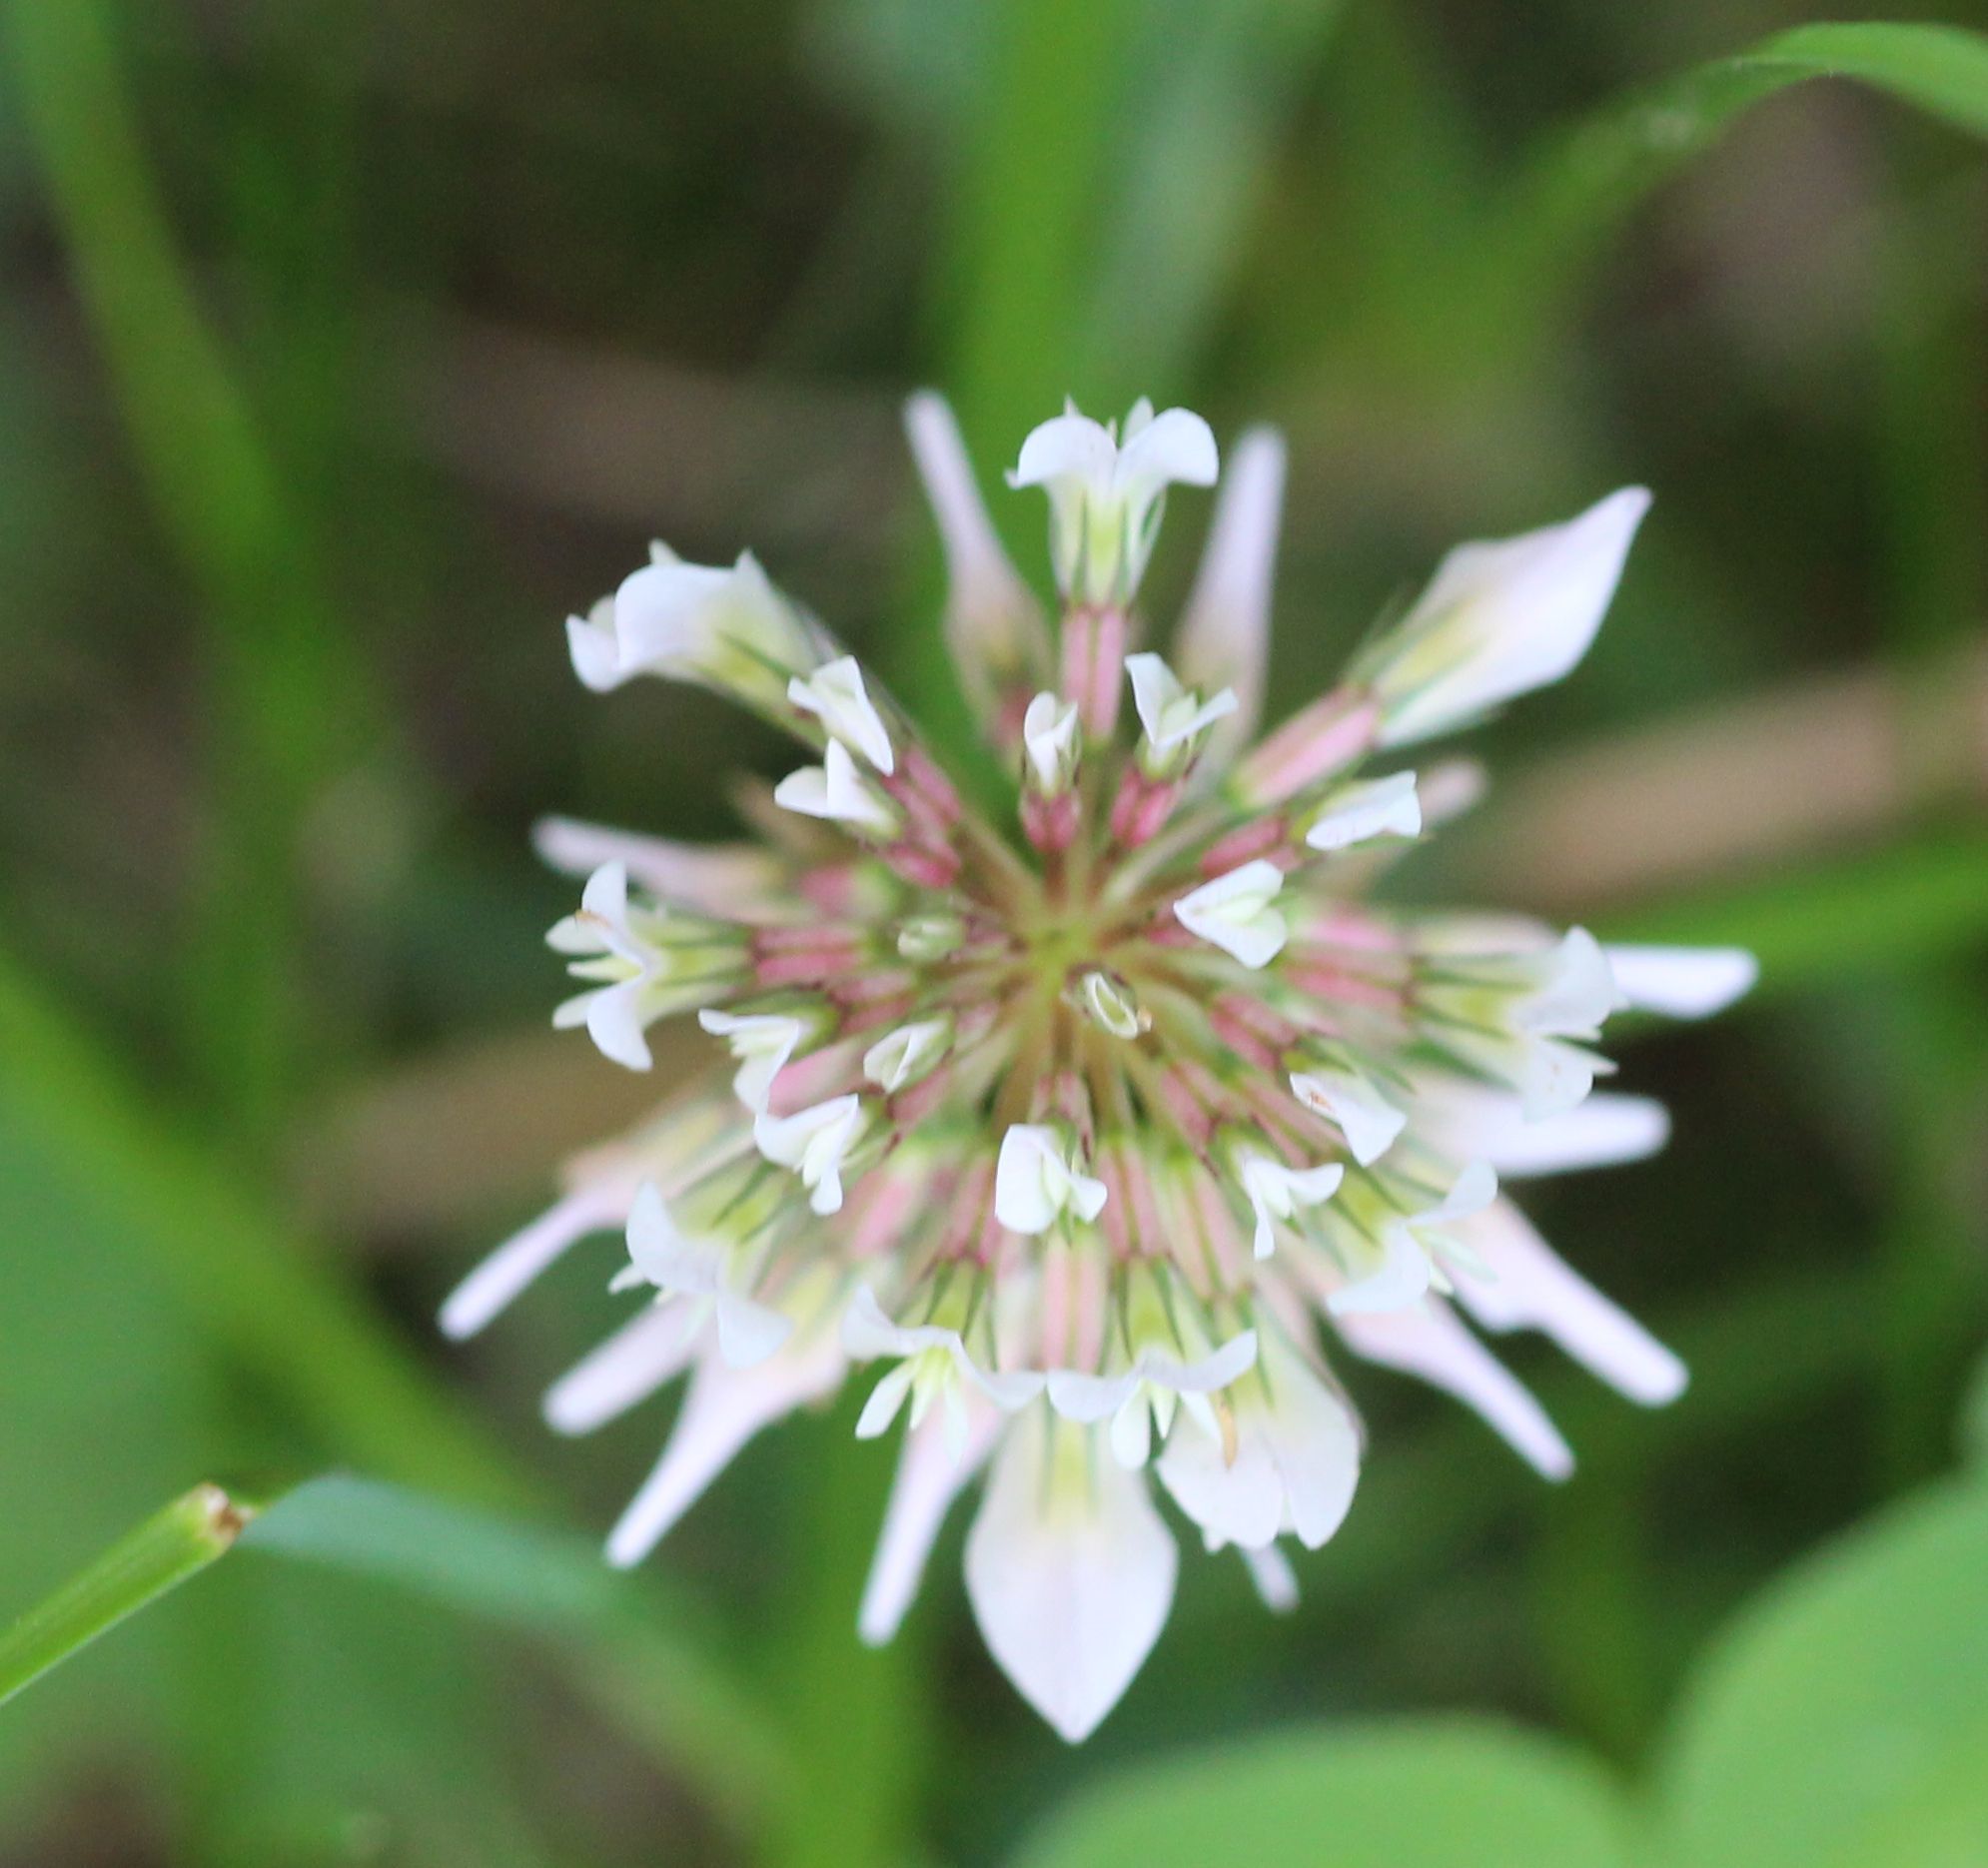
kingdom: Plantae
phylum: Tracheophyta
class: Magnoliopsida
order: Fabales
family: Fabaceae
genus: Trifolium
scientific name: Trifolium repens
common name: White clover
